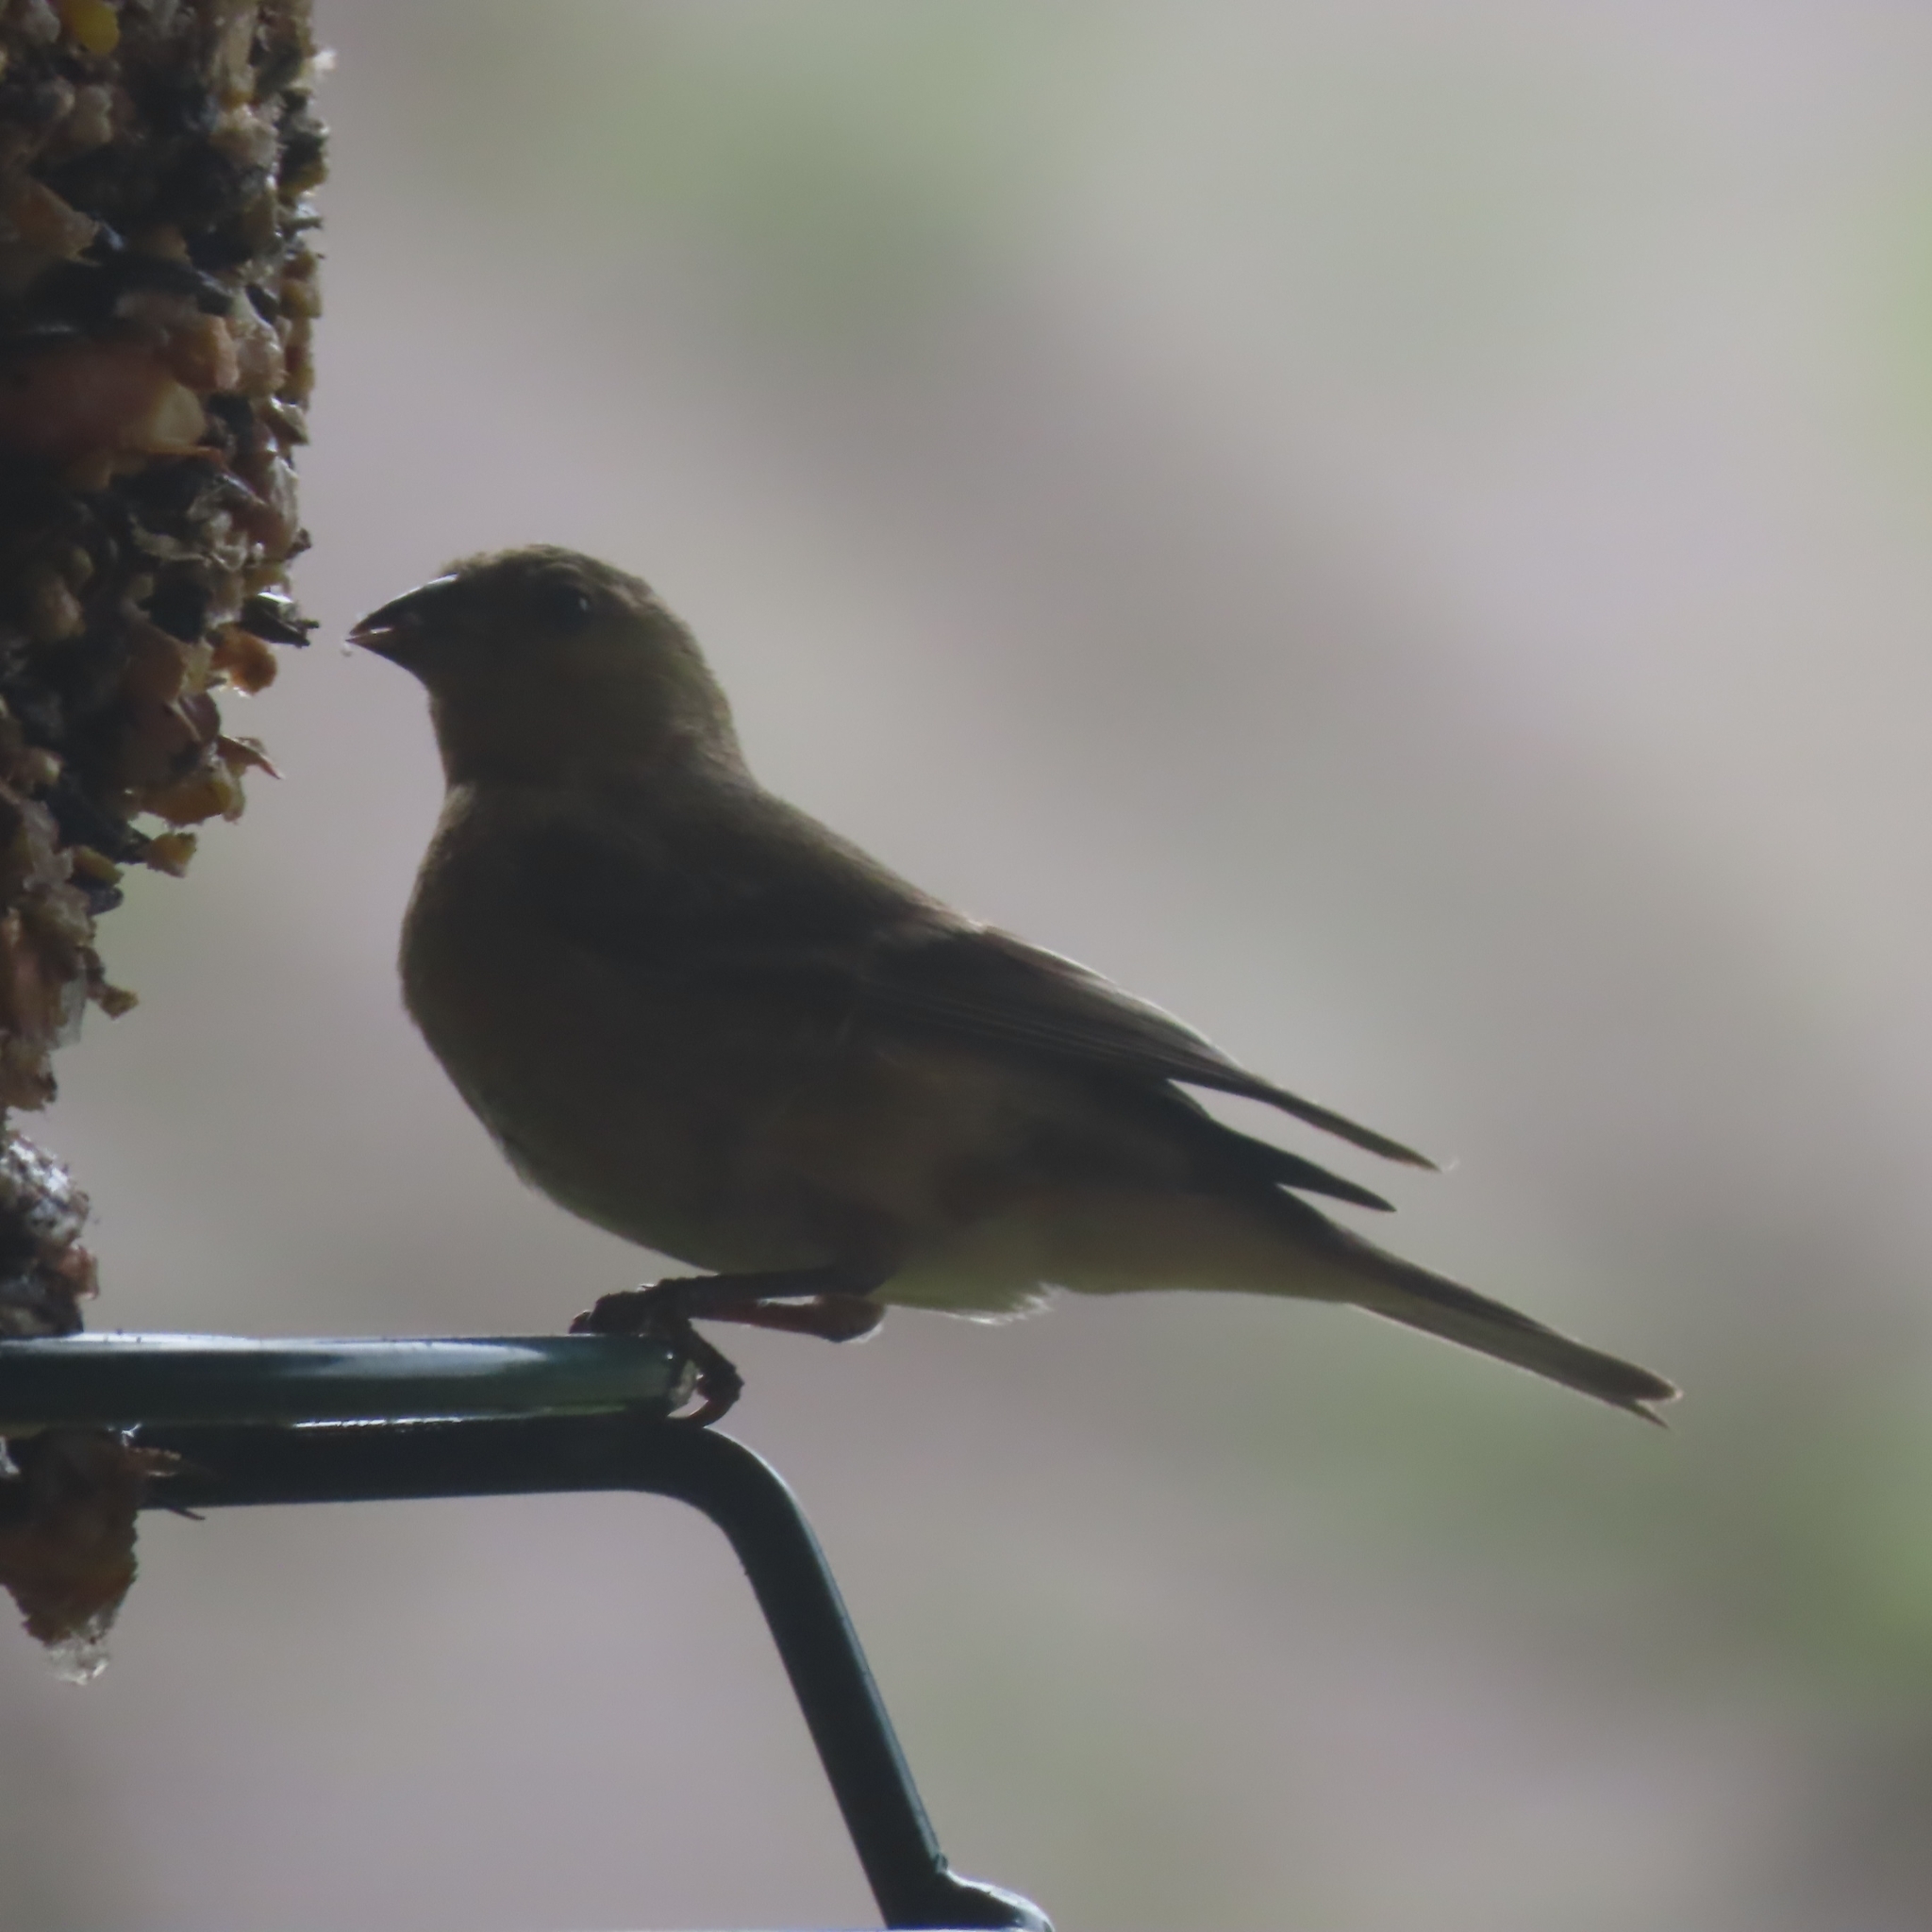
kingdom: Animalia
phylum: Chordata
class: Aves
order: Passeriformes
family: Fringillidae
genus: Spinus
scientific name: Spinus psaltria
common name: Lesser goldfinch
